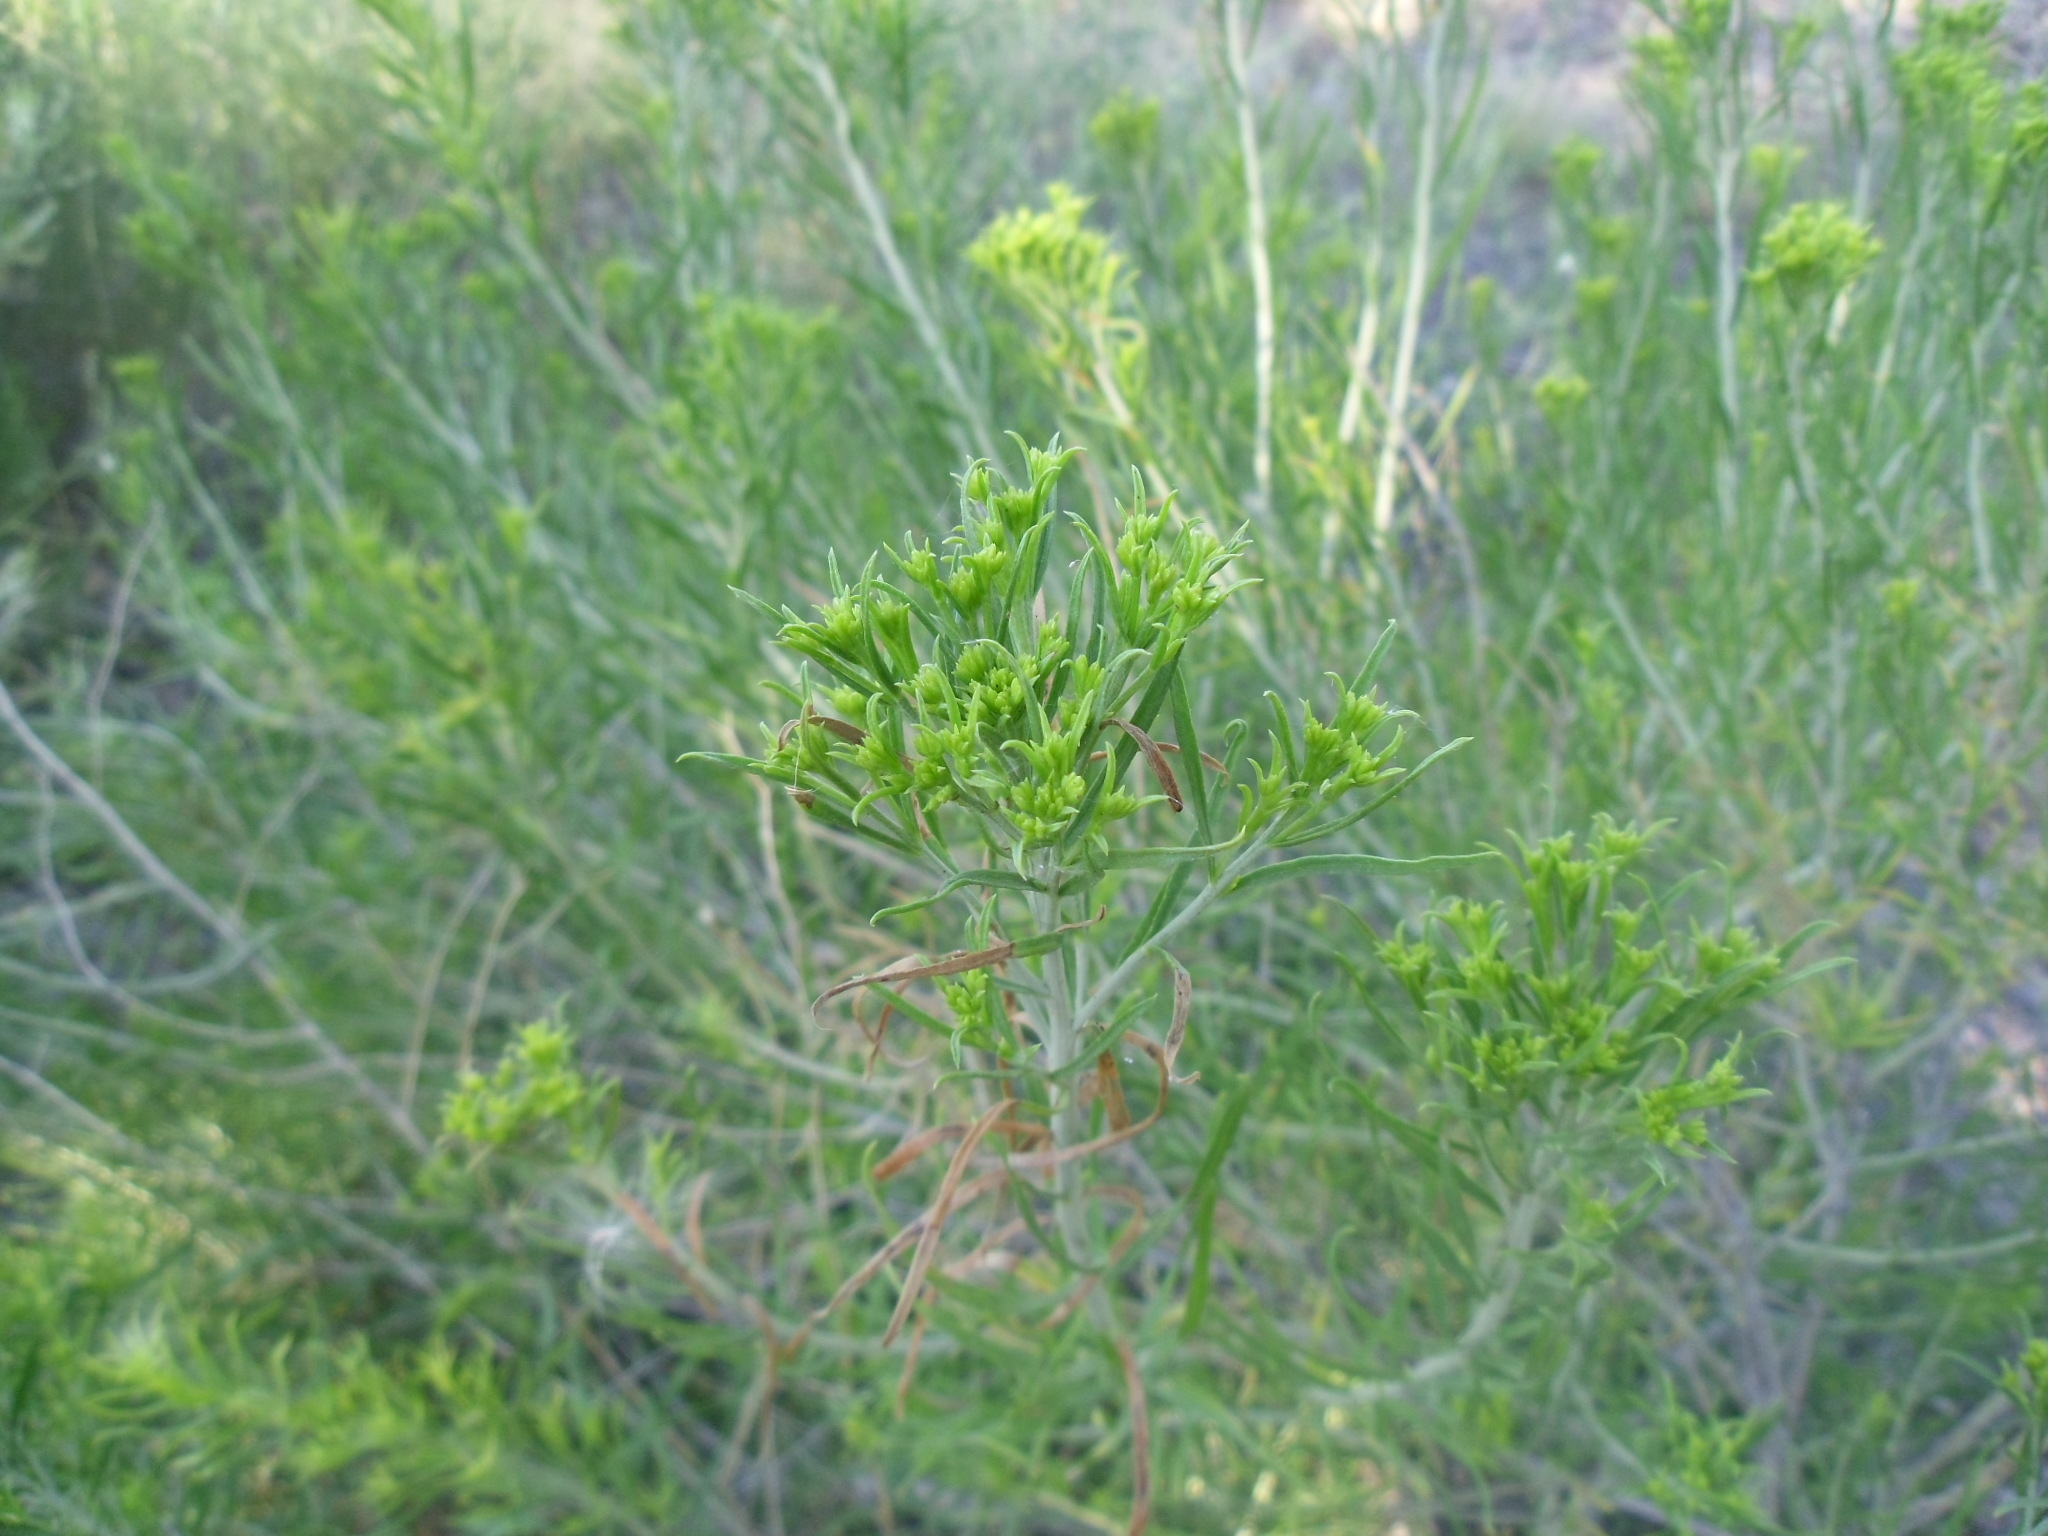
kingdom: Plantae
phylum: Tracheophyta
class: Magnoliopsida
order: Asterales
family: Asteraceae
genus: Ericameria
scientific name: Ericameria nauseosa
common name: Rubber rabbitbrush
